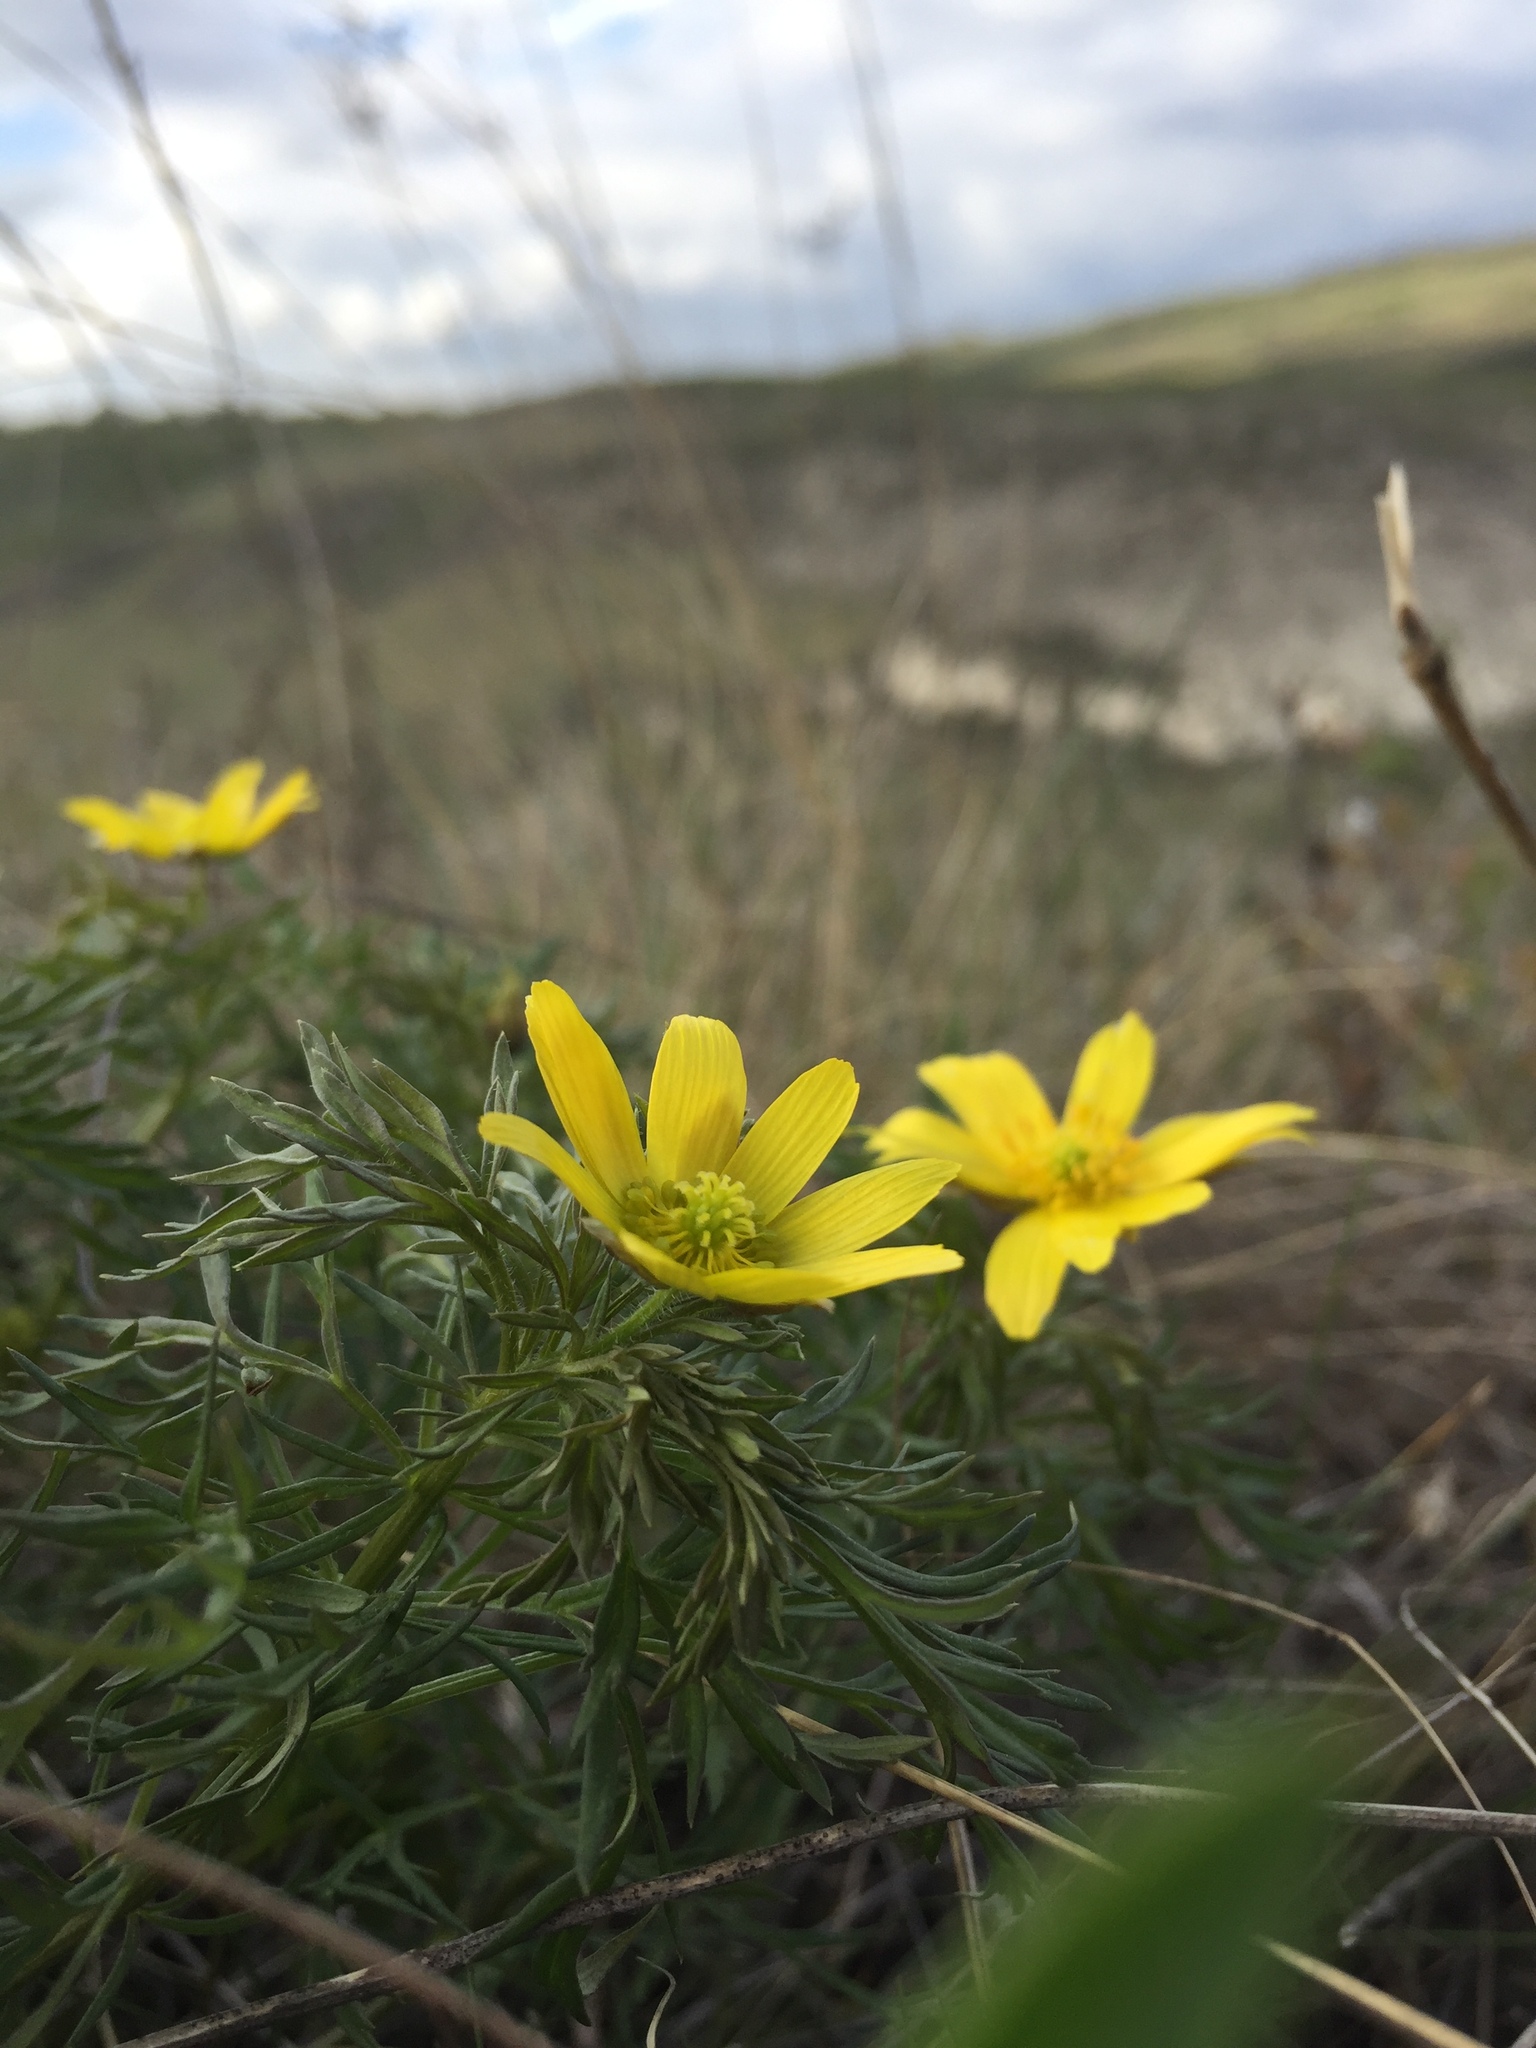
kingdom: Plantae
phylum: Tracheophyta
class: Magnoliopsida
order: Ranunculales
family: Ranunculaceae
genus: Adonis
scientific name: Adonis volgensis
